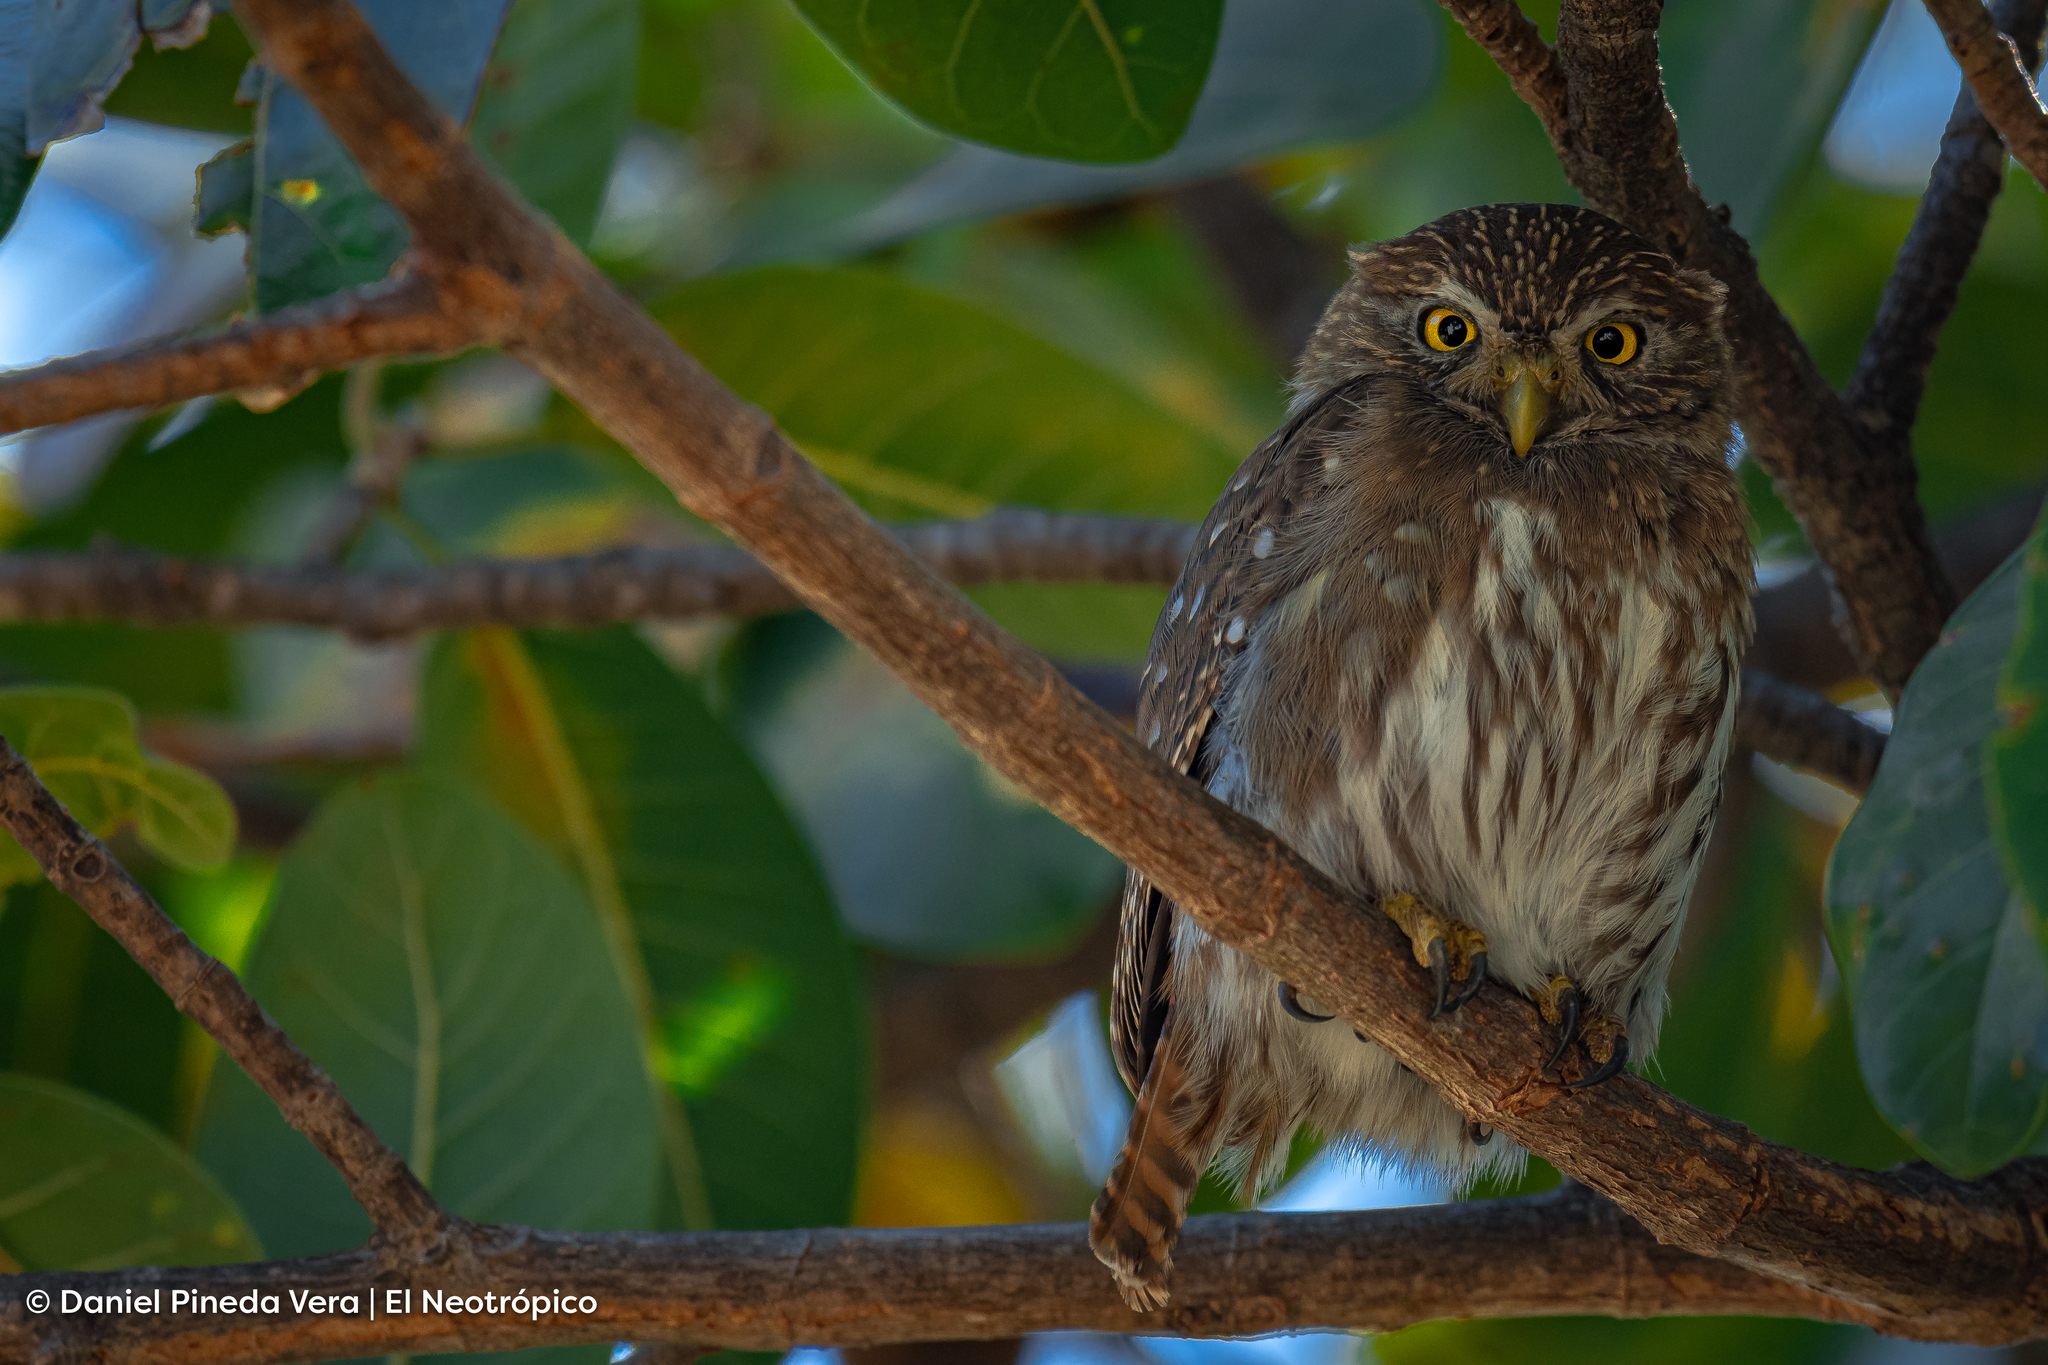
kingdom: Animalia
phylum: Chordata
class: Aves
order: Strigiformes
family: Strigidae
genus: Glaucidium
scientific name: Glaucidium brasilianum
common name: Ferruginous pygmy-owl
